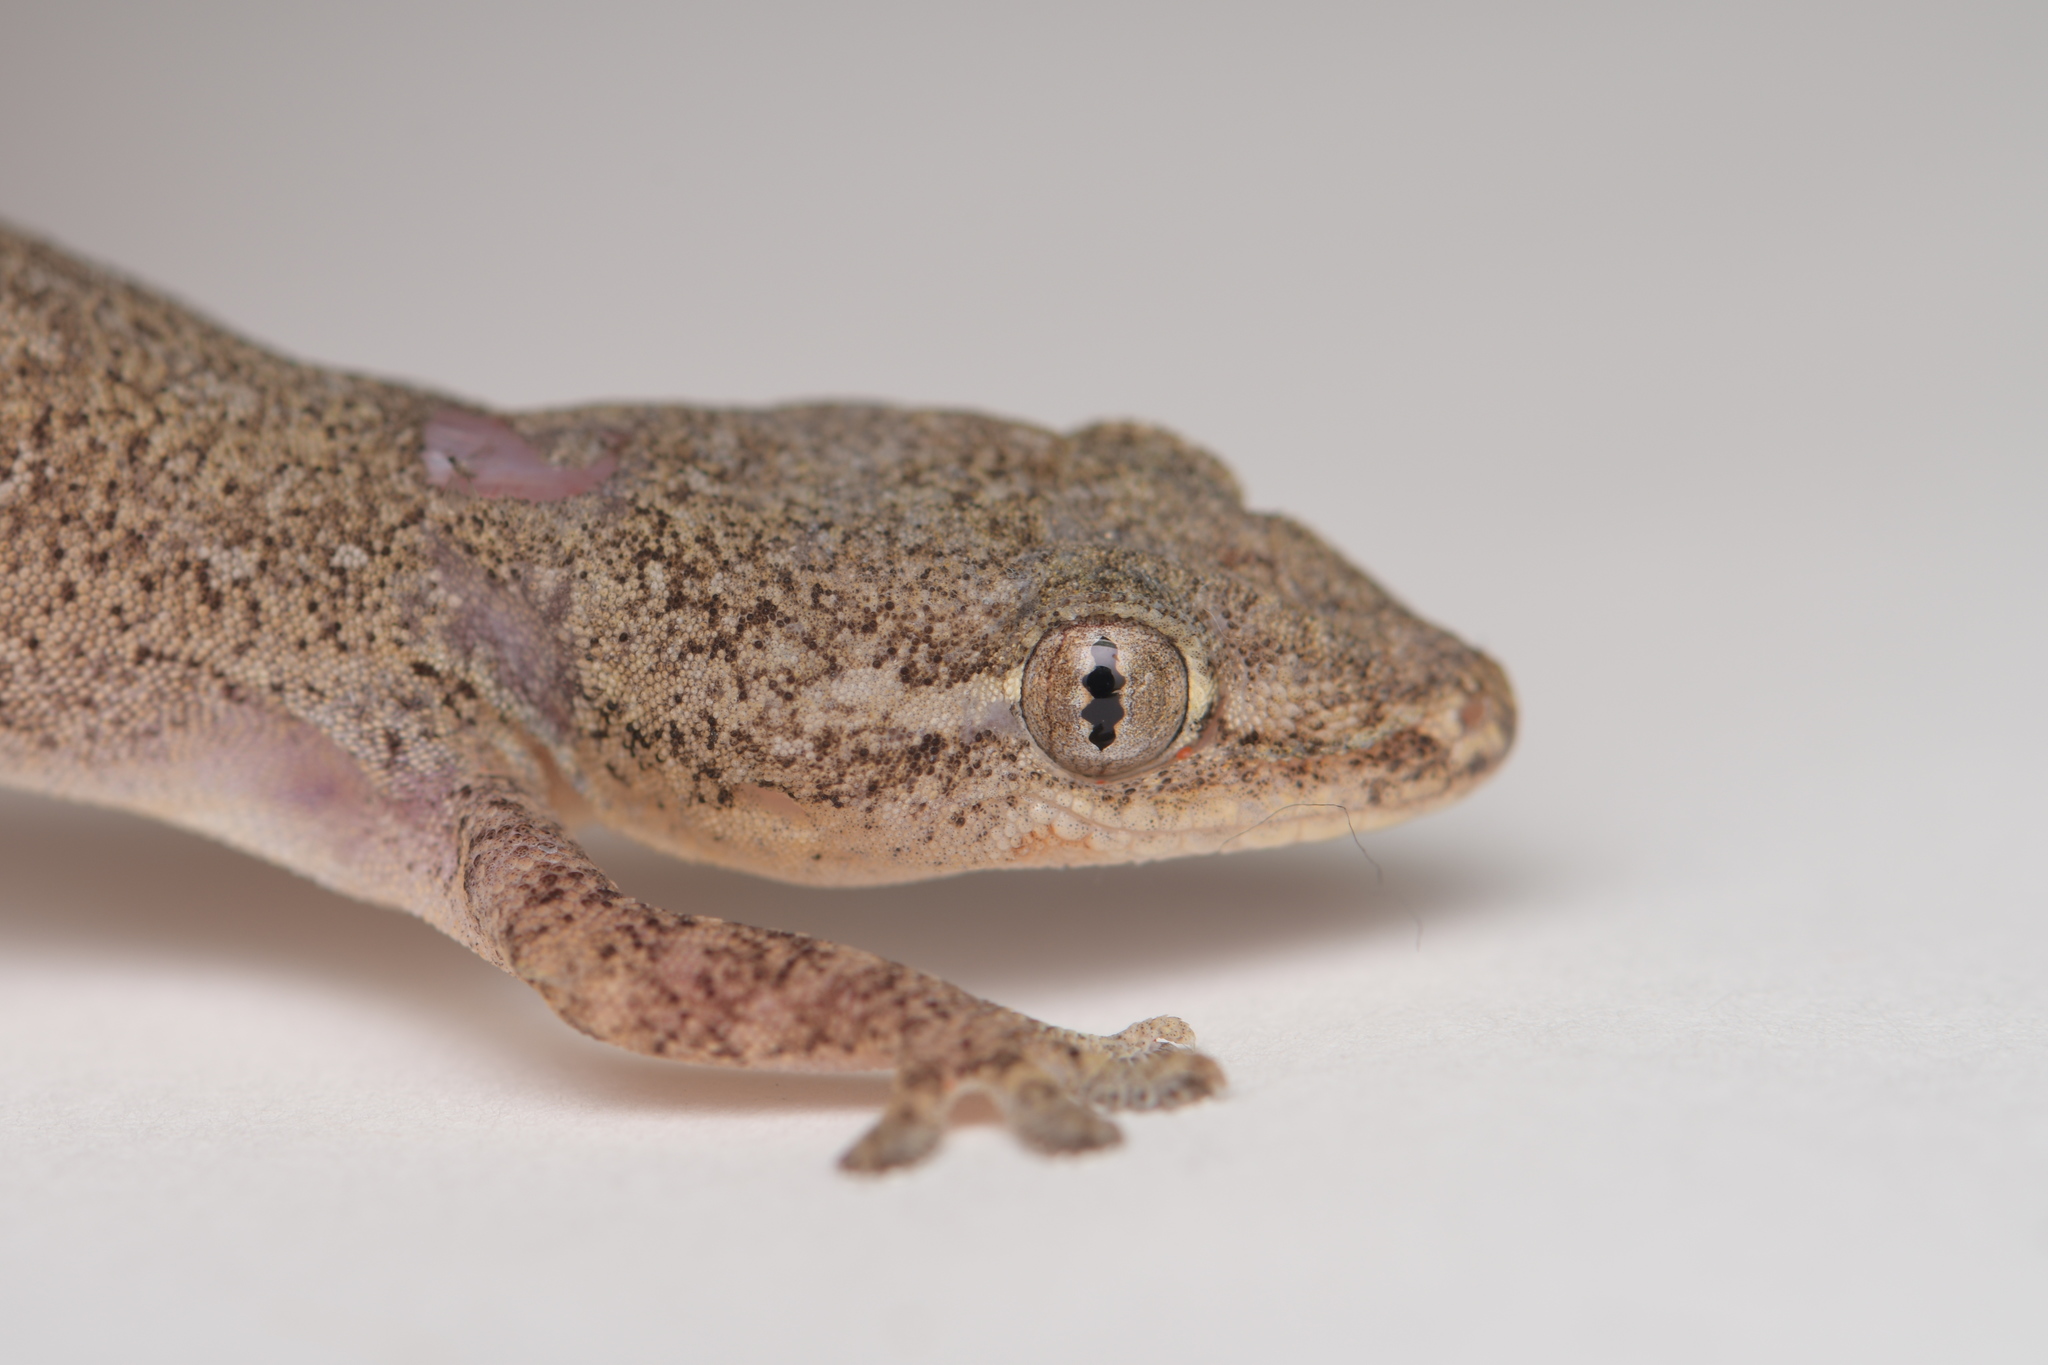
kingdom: Animalia
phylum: Chordata
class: Squamata
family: Gekkonidae
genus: Hemidactylus
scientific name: Hemidactylus frenatus
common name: Common house gecko
